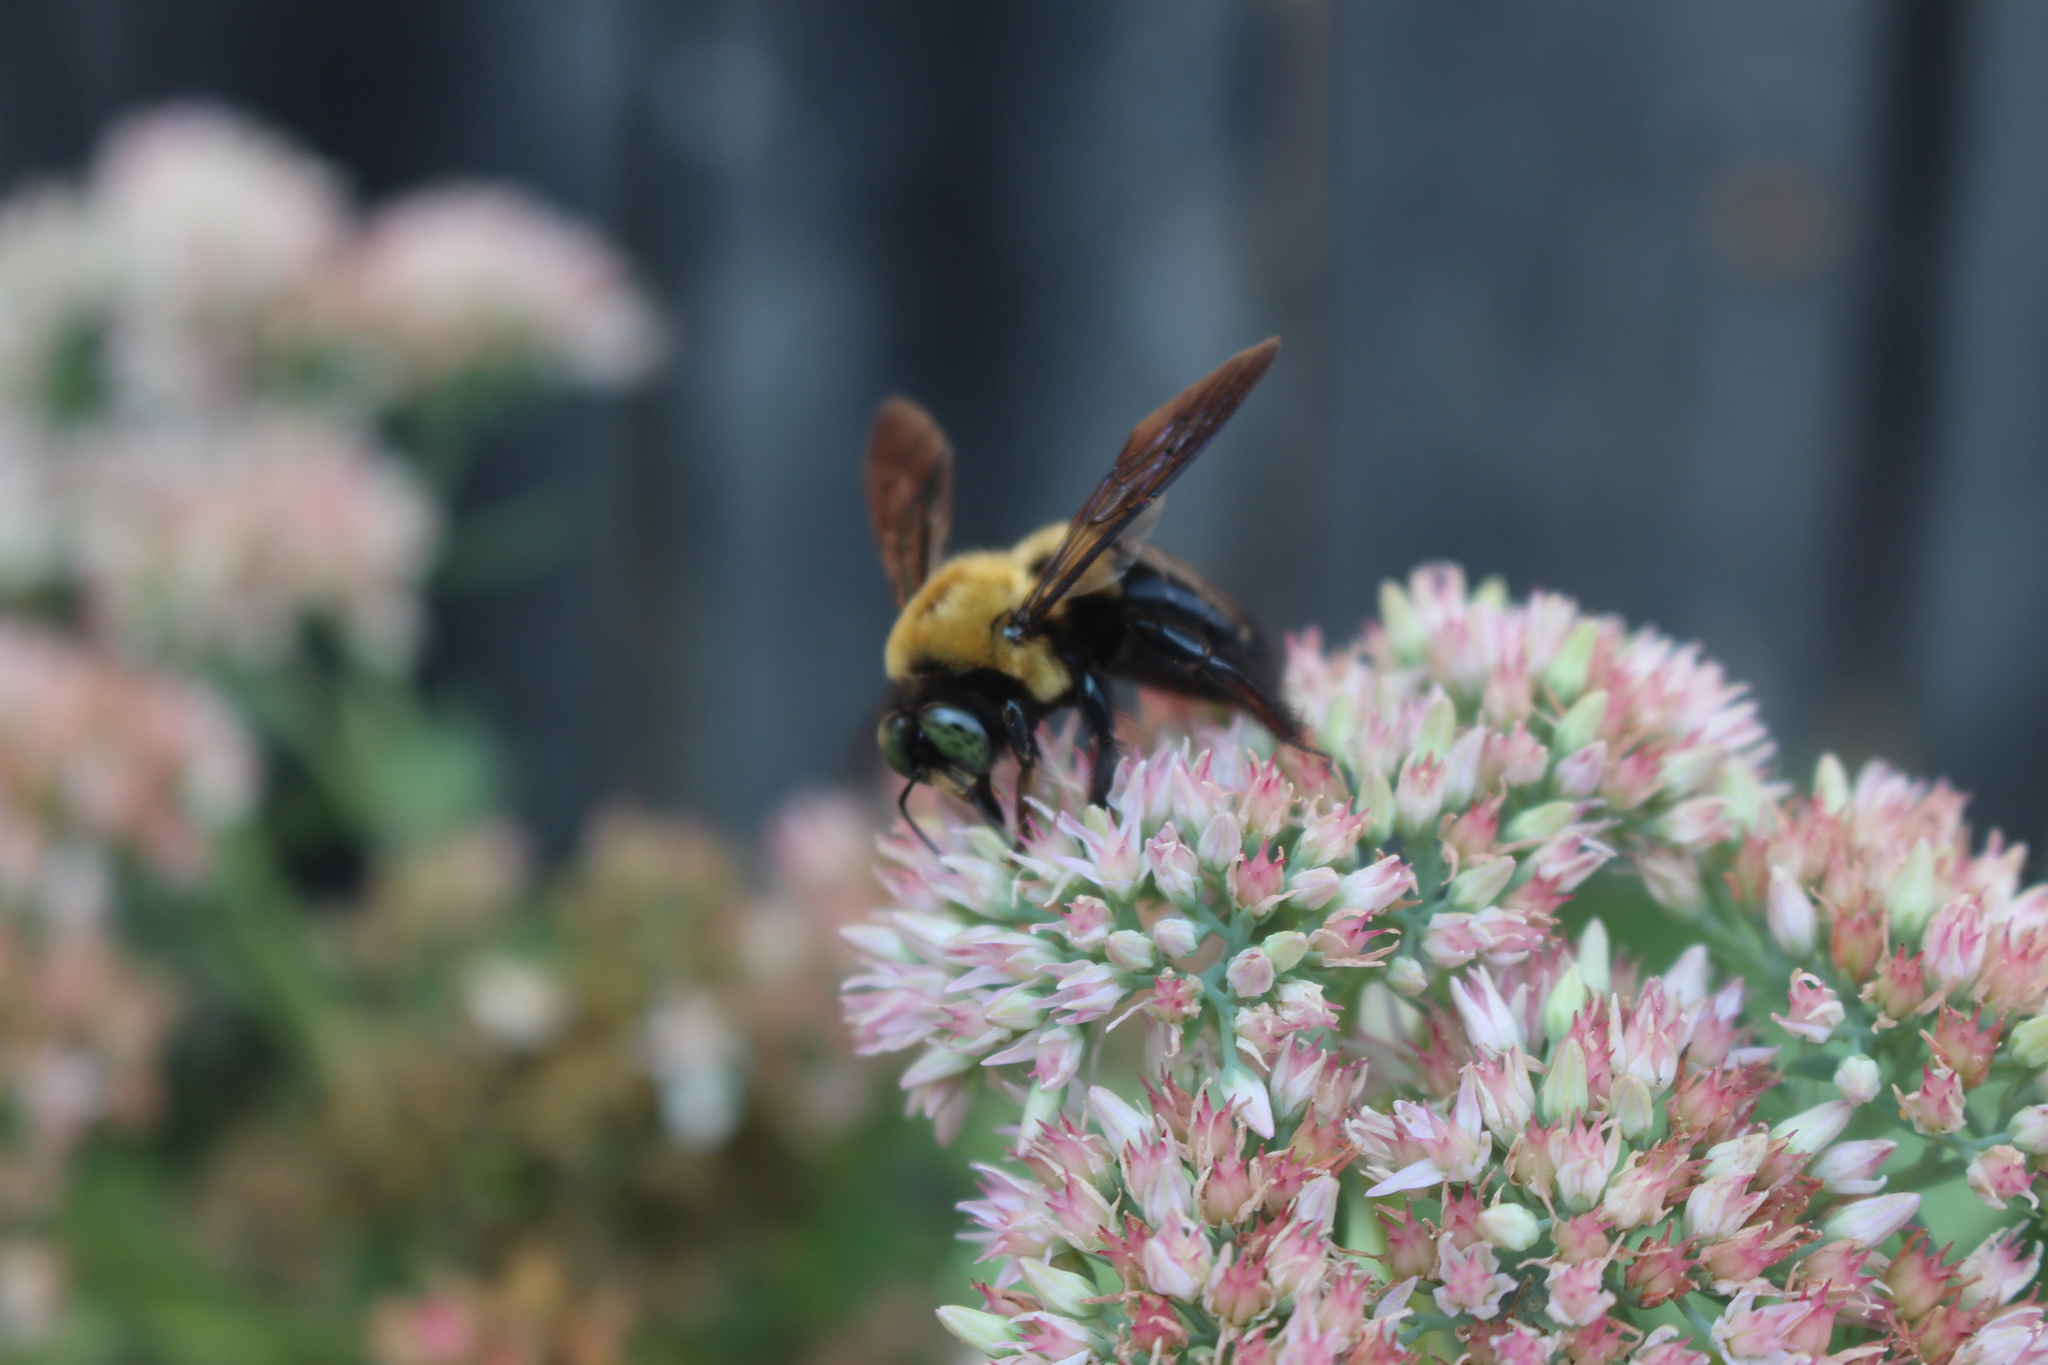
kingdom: Animalia
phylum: Arthropoda
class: Insecta
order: Hymenoptera
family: Apidae
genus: Xylocopa
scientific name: Xylocopa virginica
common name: Carpenter bee
